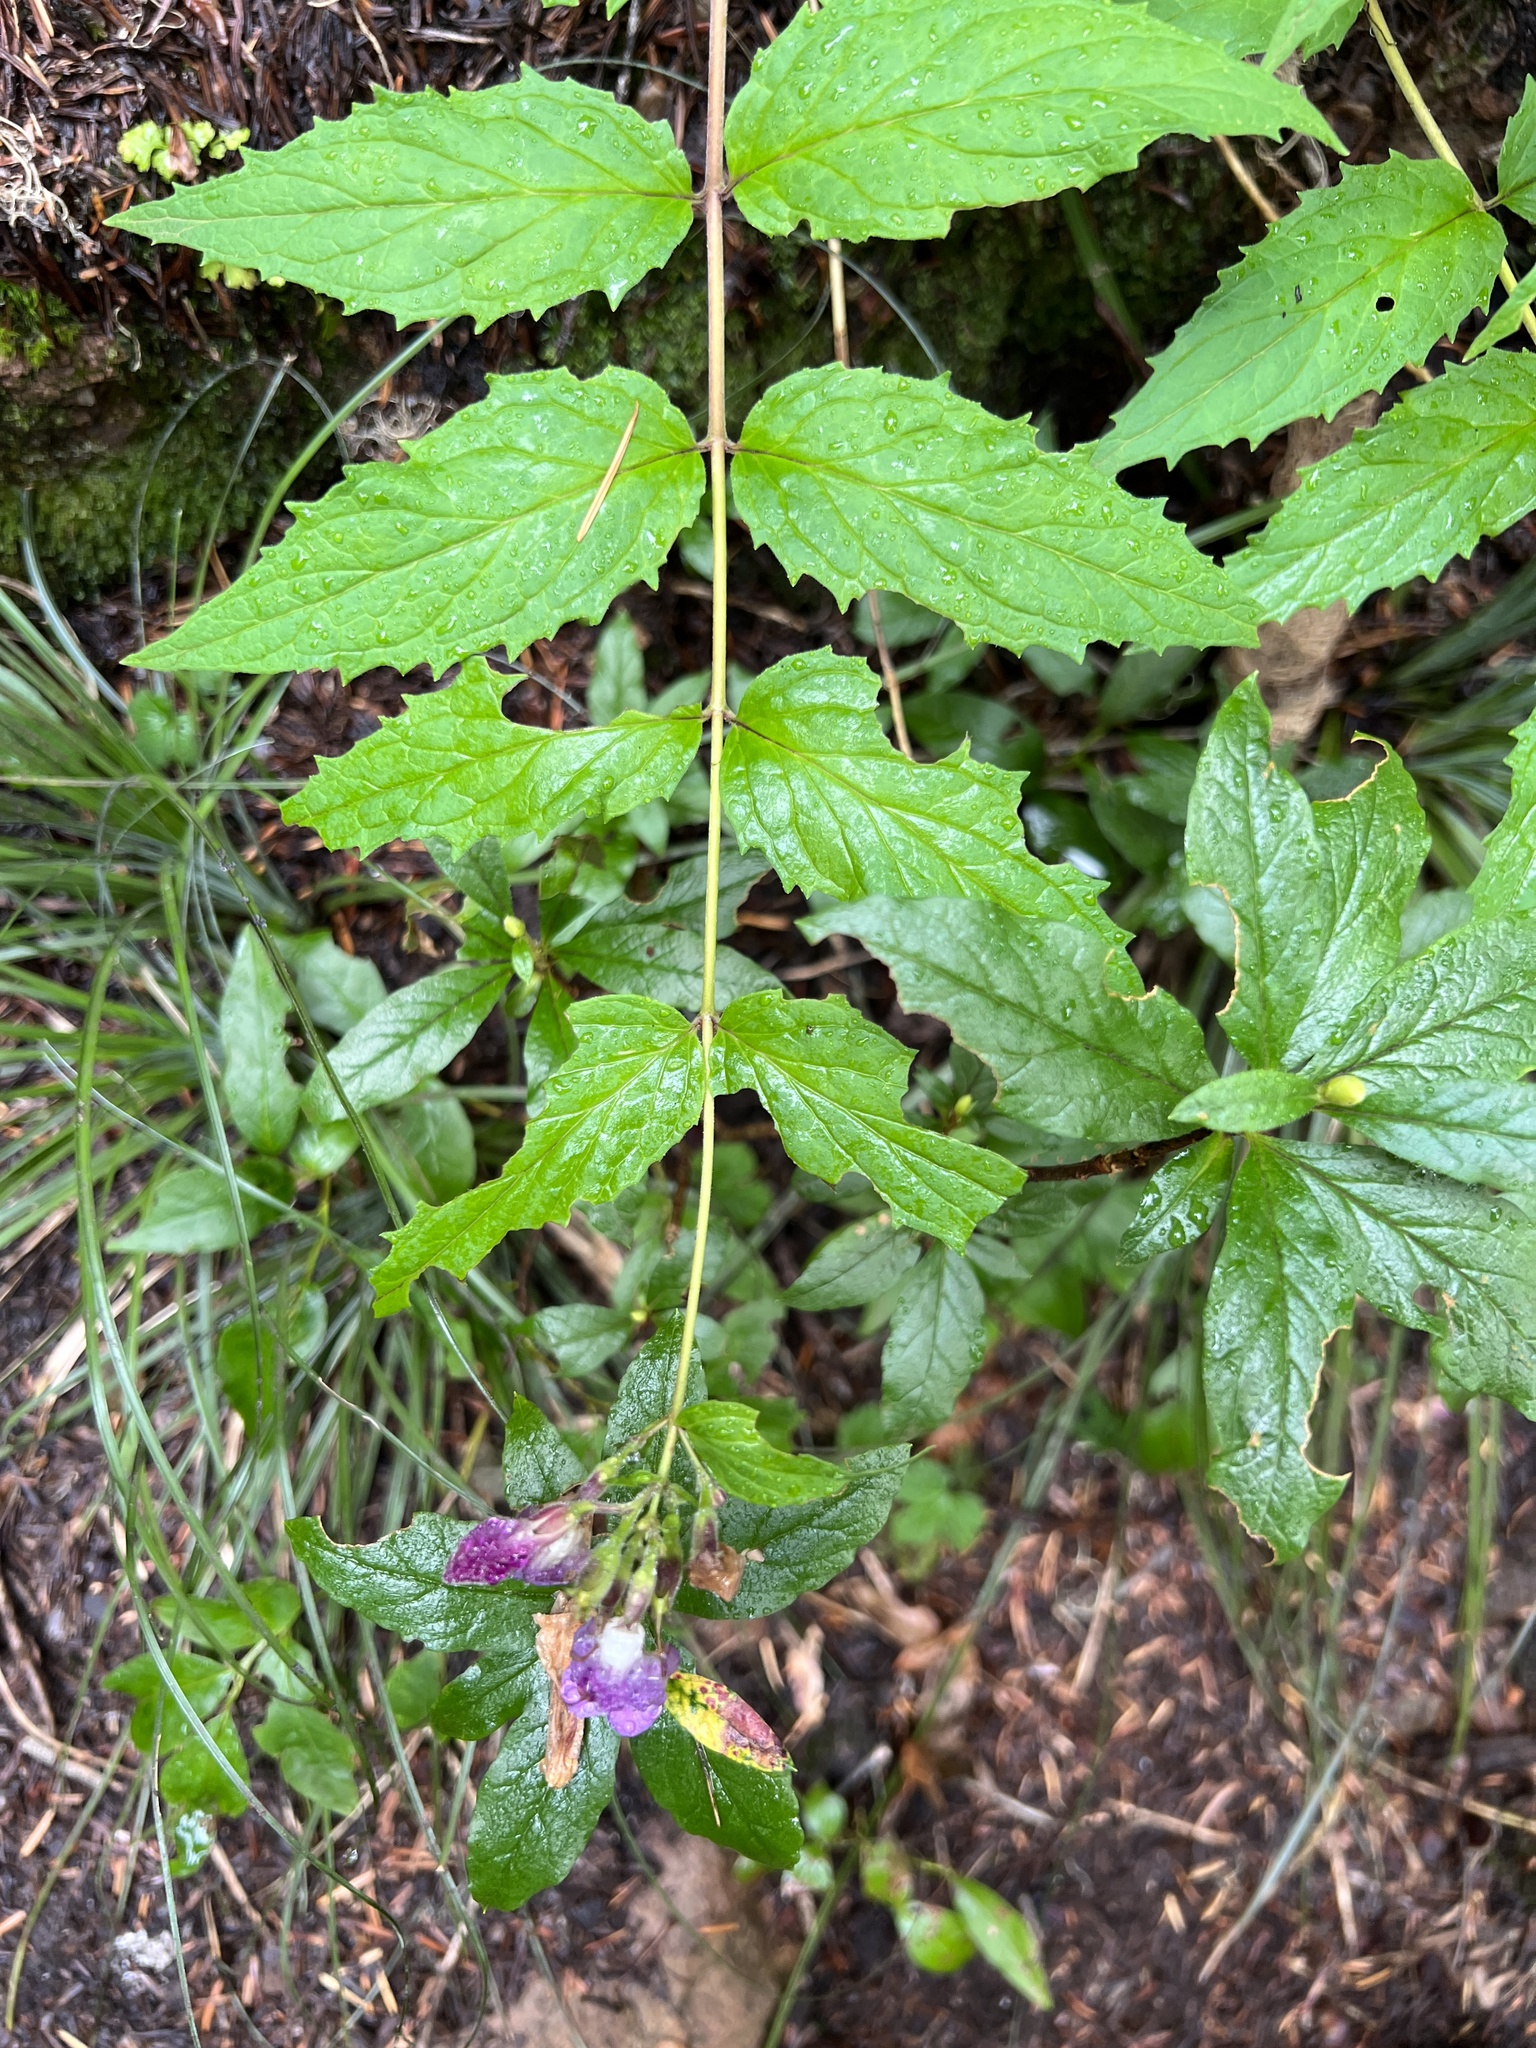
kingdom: Plantae
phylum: Tracheophyta
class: Magnoliopsida
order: Lamiales
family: Plantaginaceae
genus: Nothochelone
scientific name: Nothochelone nemorosa
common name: Woodland beardtongue
